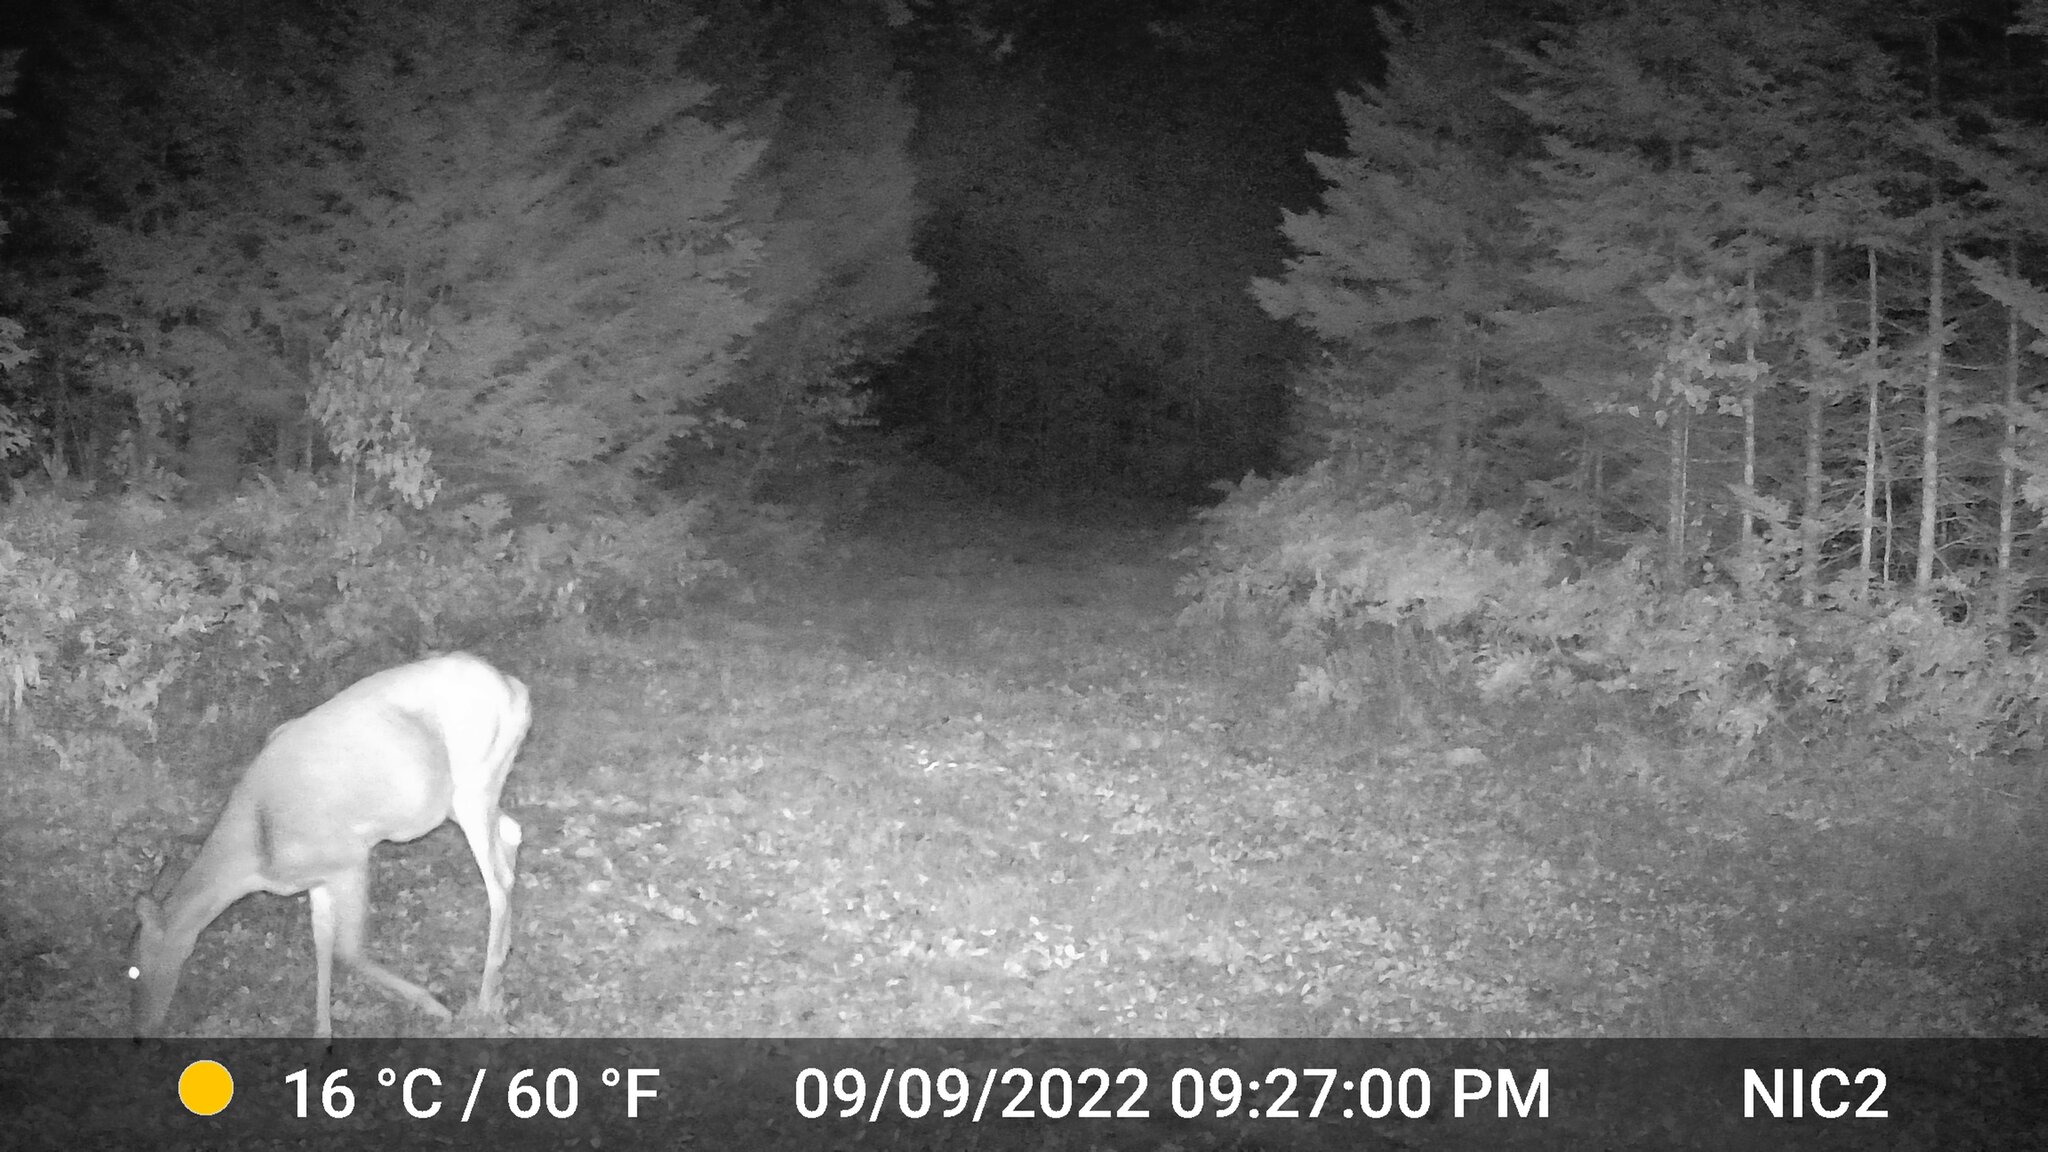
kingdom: Animalia
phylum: Chordata
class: Mammalia
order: Artiodactyla
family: Cervidae
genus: Odocoileus
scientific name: Odocoileus virginianus
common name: White-tailed deer
